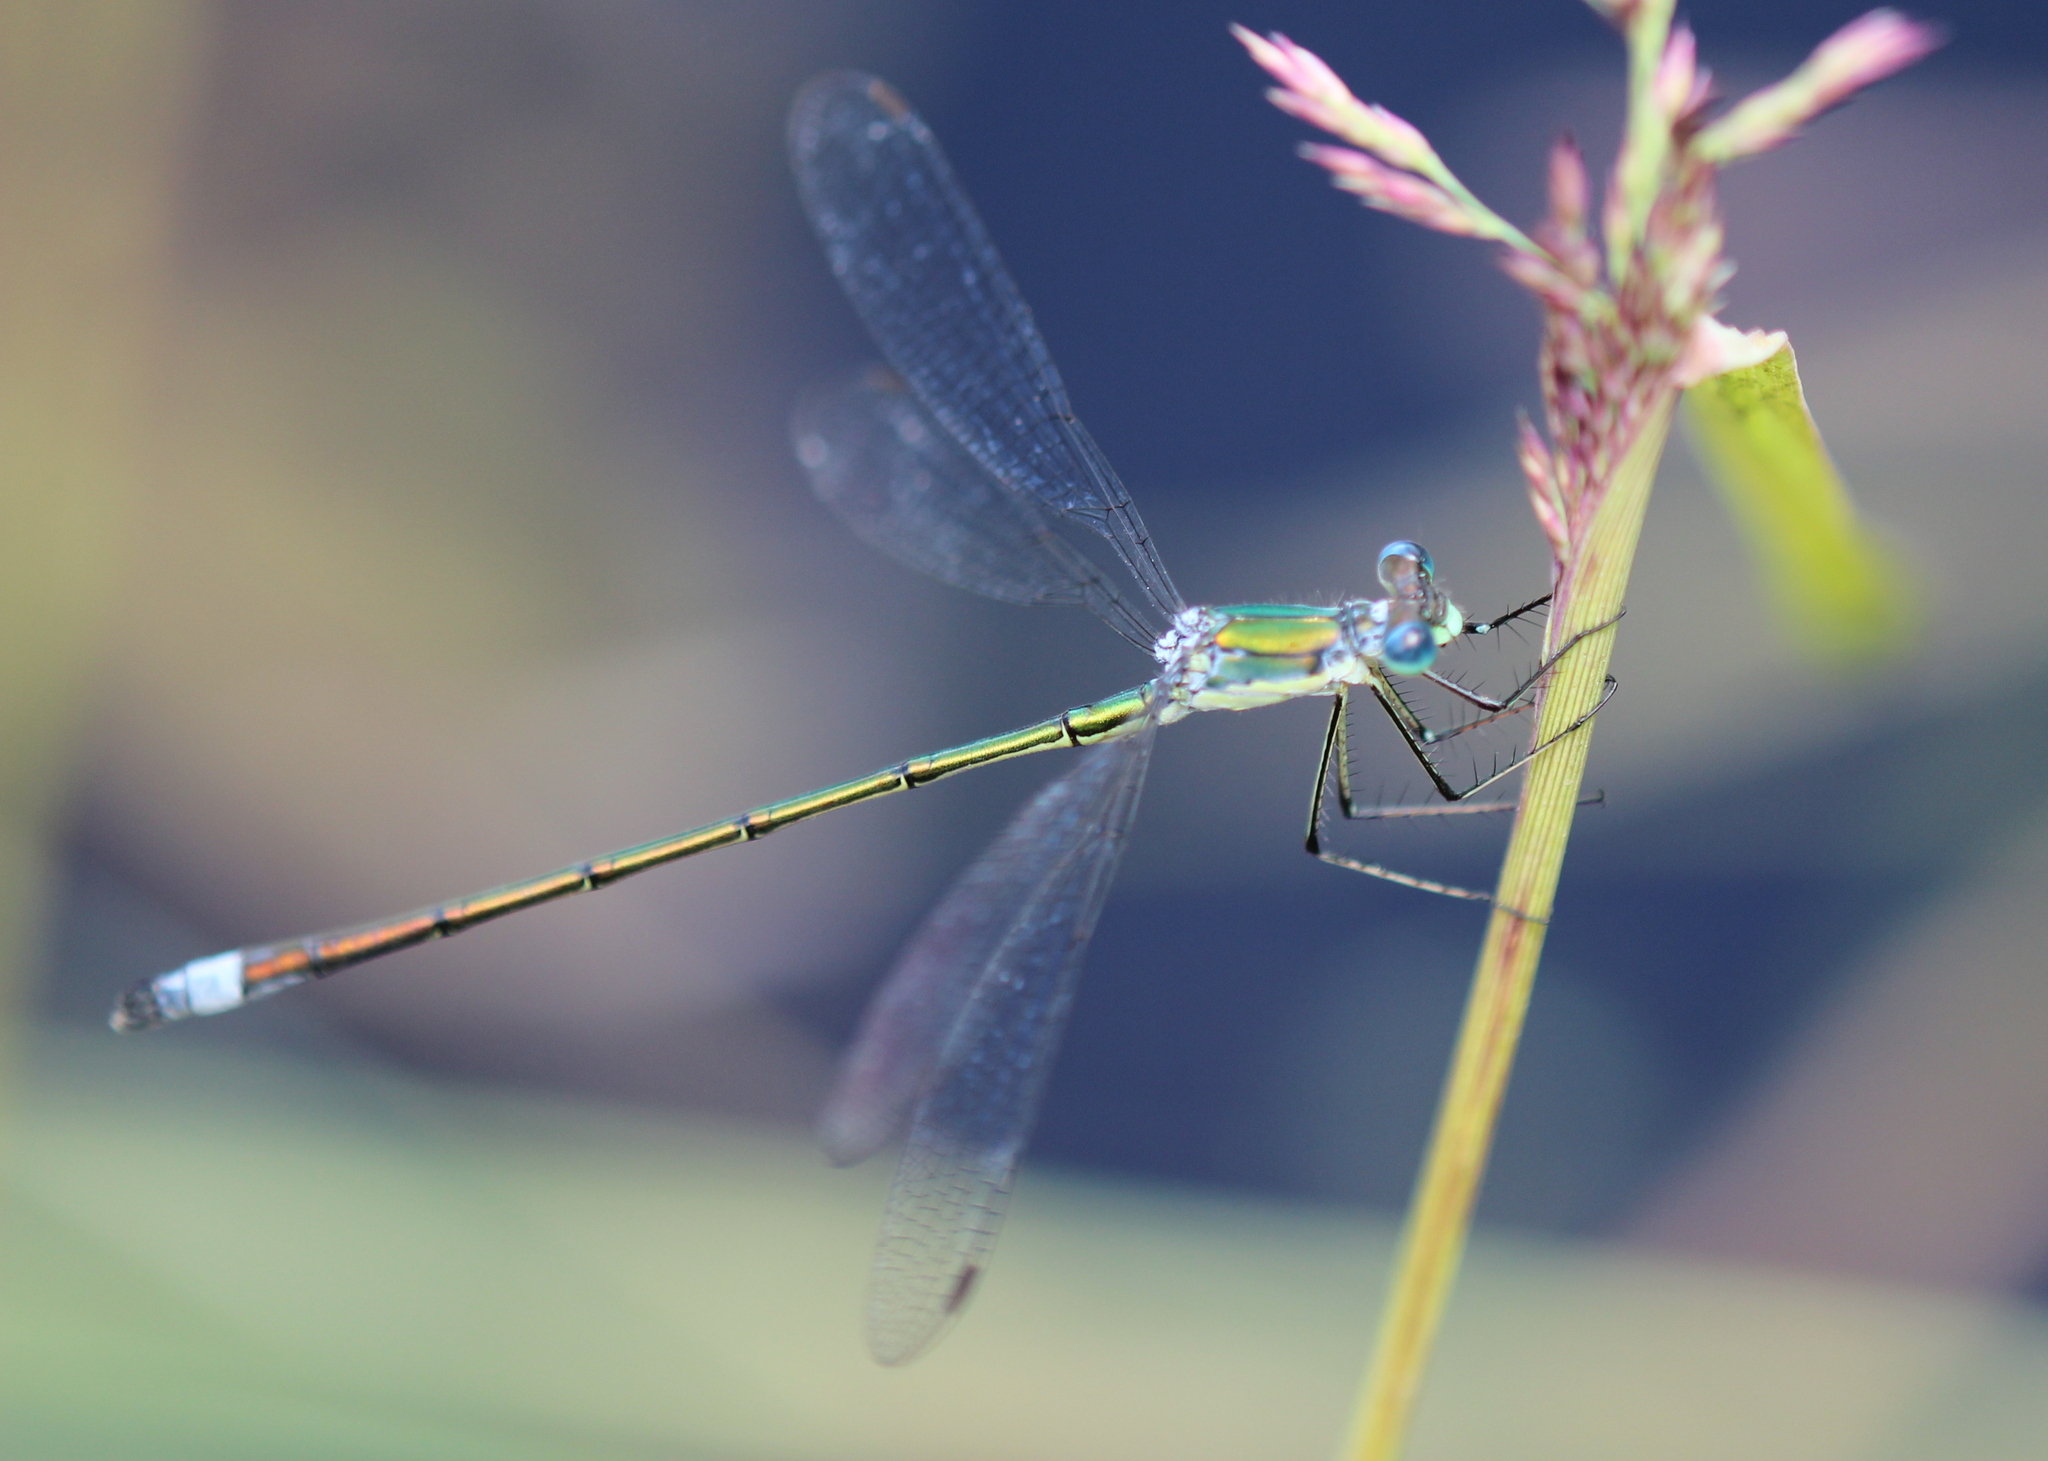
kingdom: Animalia
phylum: Arthropoda
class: Insecta
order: Odonata
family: Lestidae
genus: Lestes
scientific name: Lestes inaequalis
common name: Elegant spreadwing
